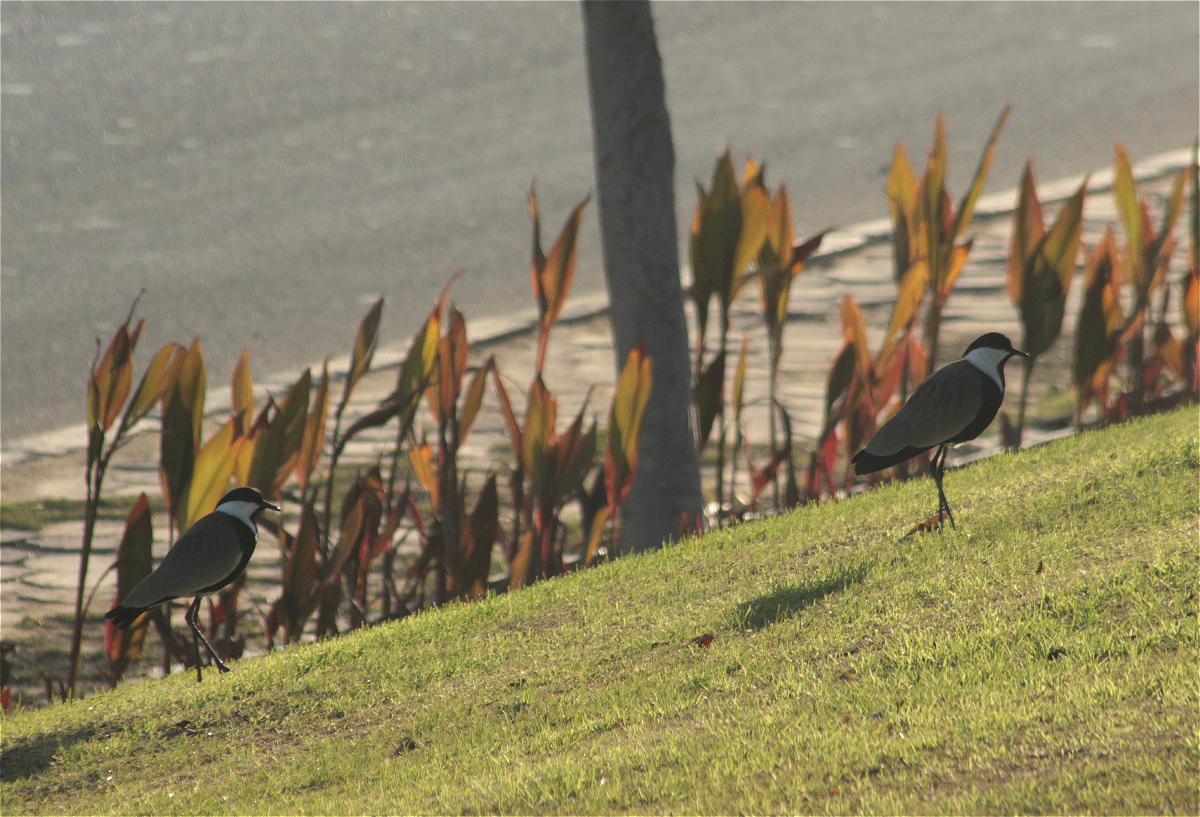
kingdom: Animalia
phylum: Chordata
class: Aves
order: Charadriiformes
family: Charadriidae
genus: Vanellus
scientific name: Vanellus spinosus
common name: Spur-winged lapwing
